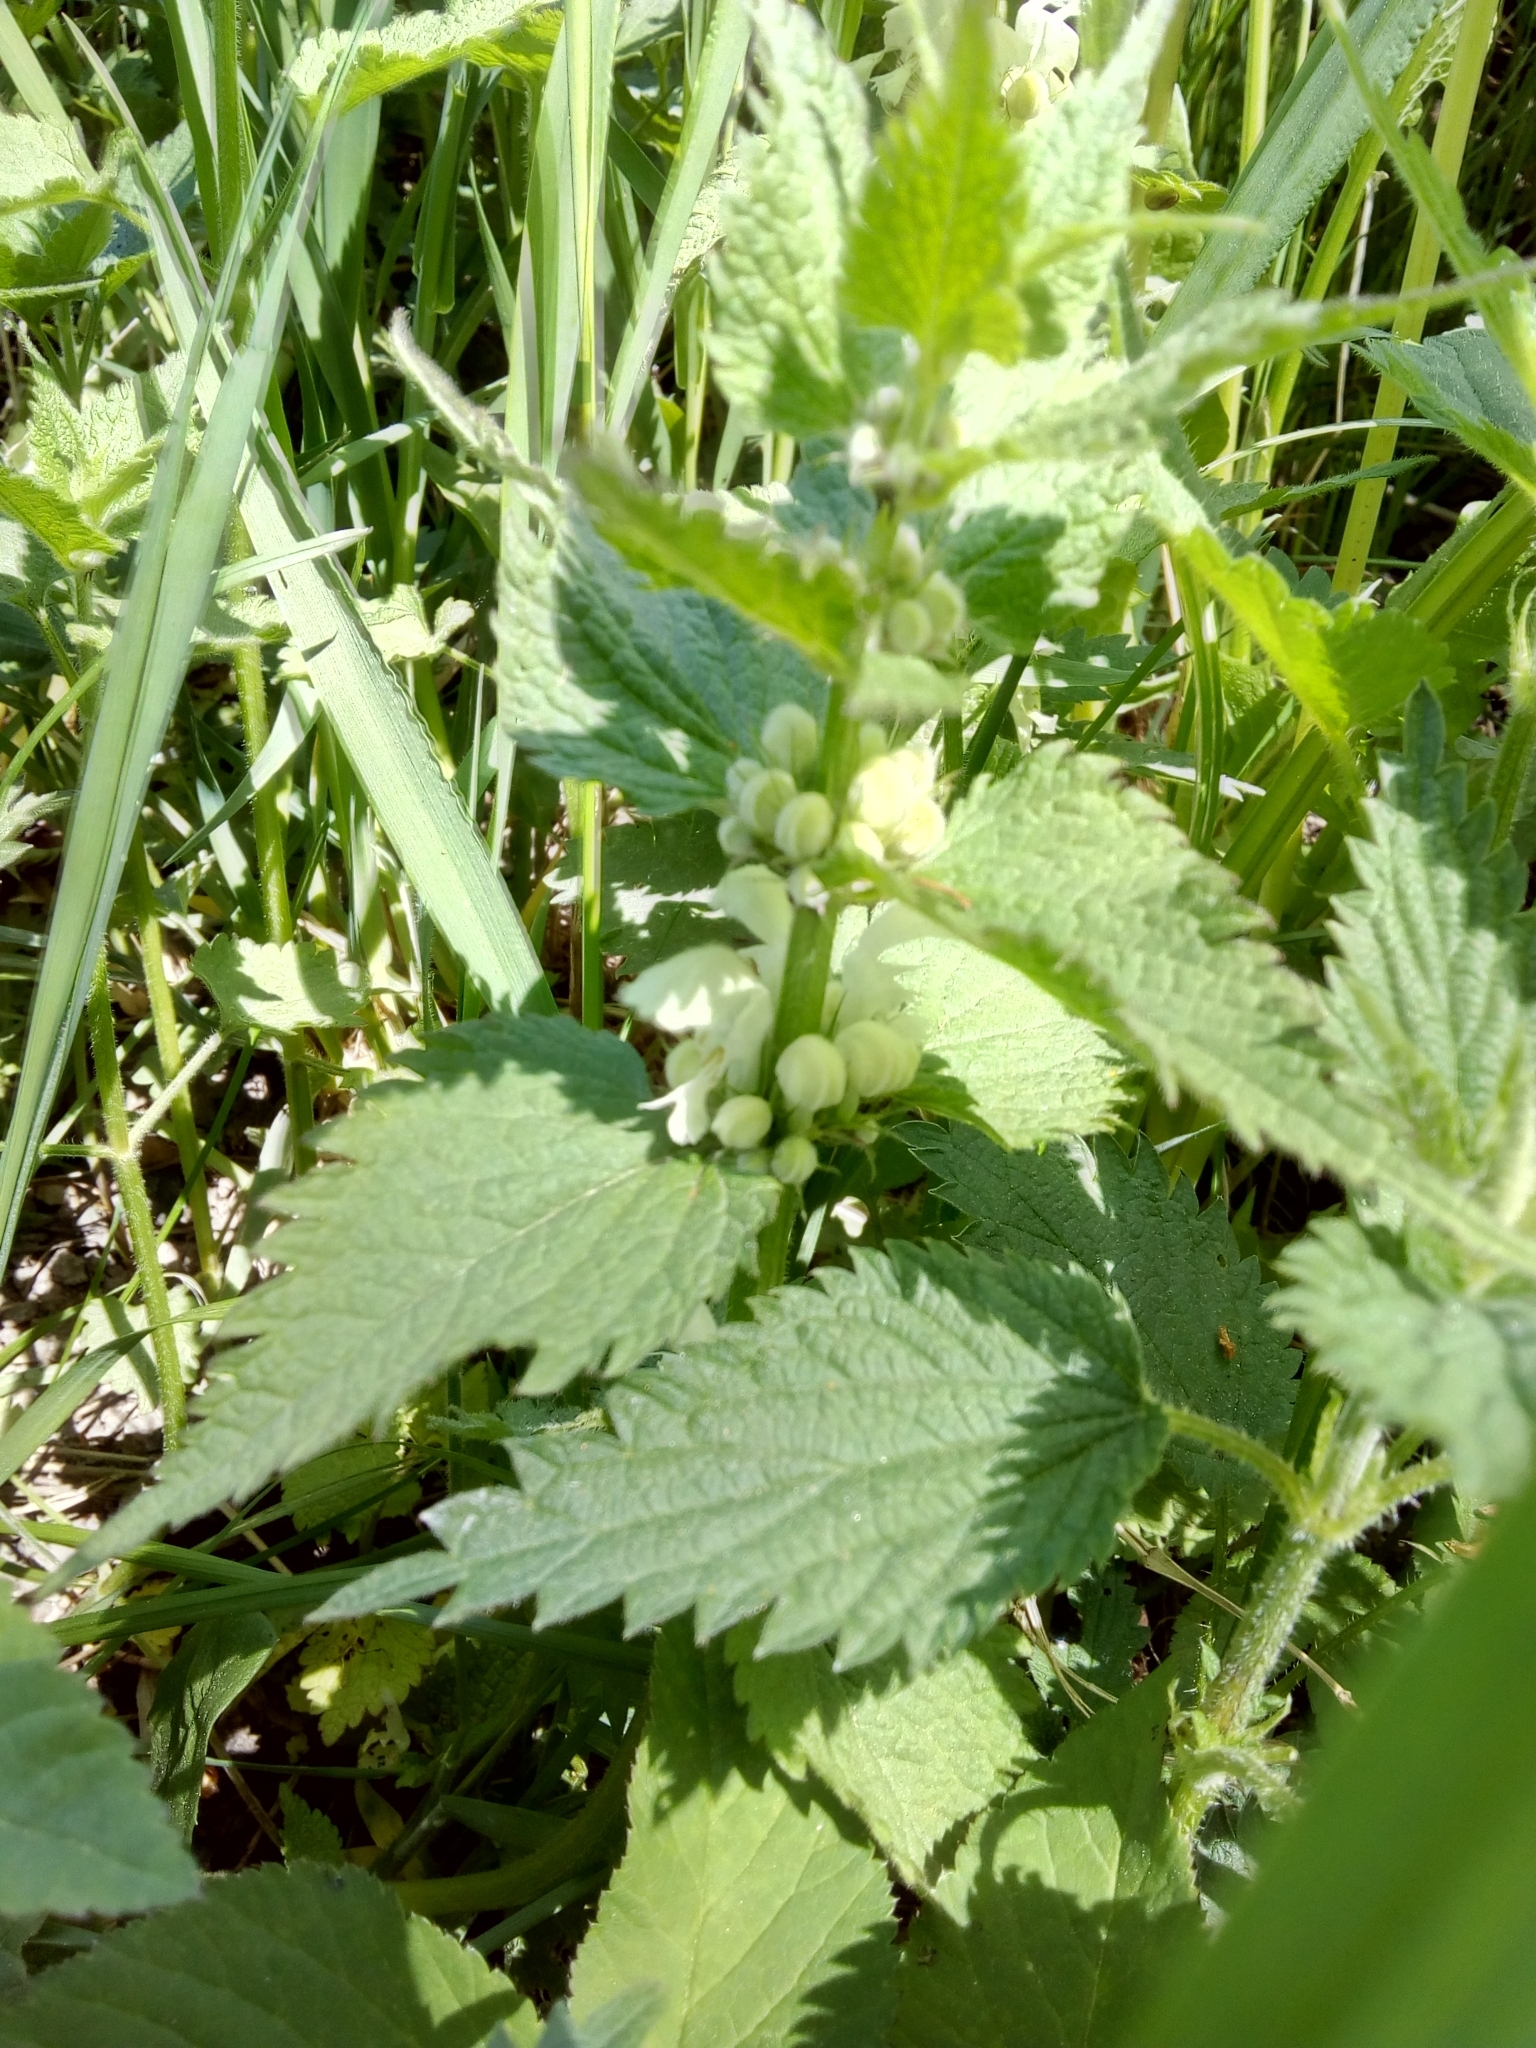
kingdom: Plantae
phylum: Tracheophyta
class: Magnoliopsida
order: Lamiales
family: Lamiaceae
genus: Lamium
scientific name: Lamium album
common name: White dead-nettle
